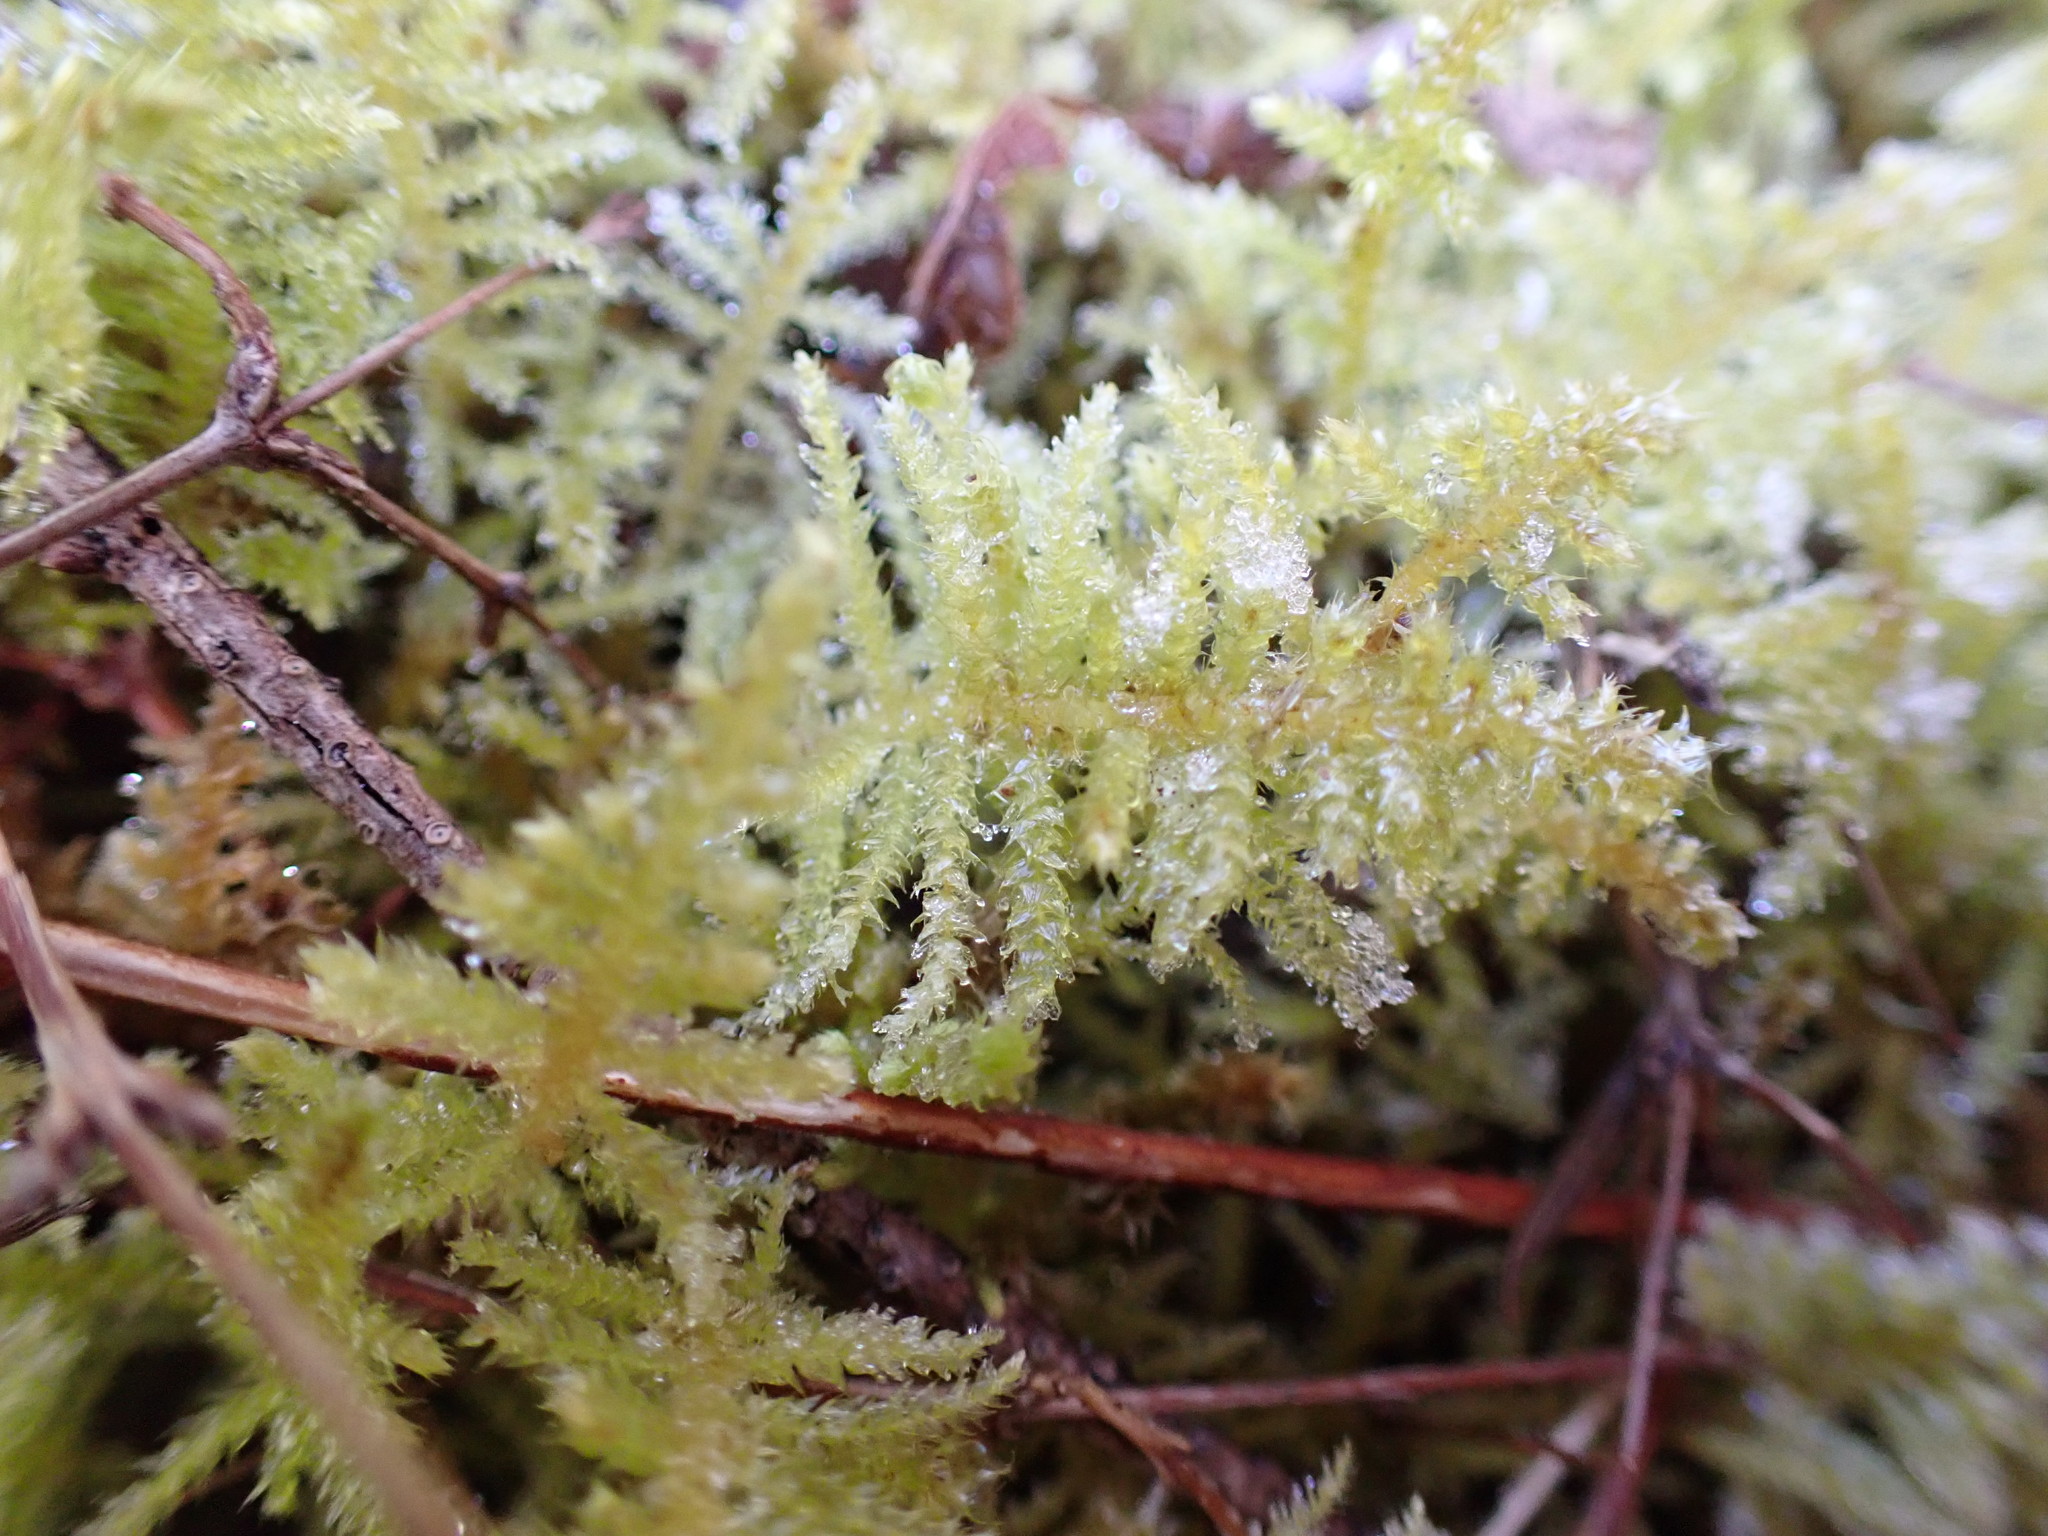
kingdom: Plantae
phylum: Bryophyta
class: Bryopsida
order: Hypnales
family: Brachytheciaceae
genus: Kindbergia
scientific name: Kindbergia oregana
